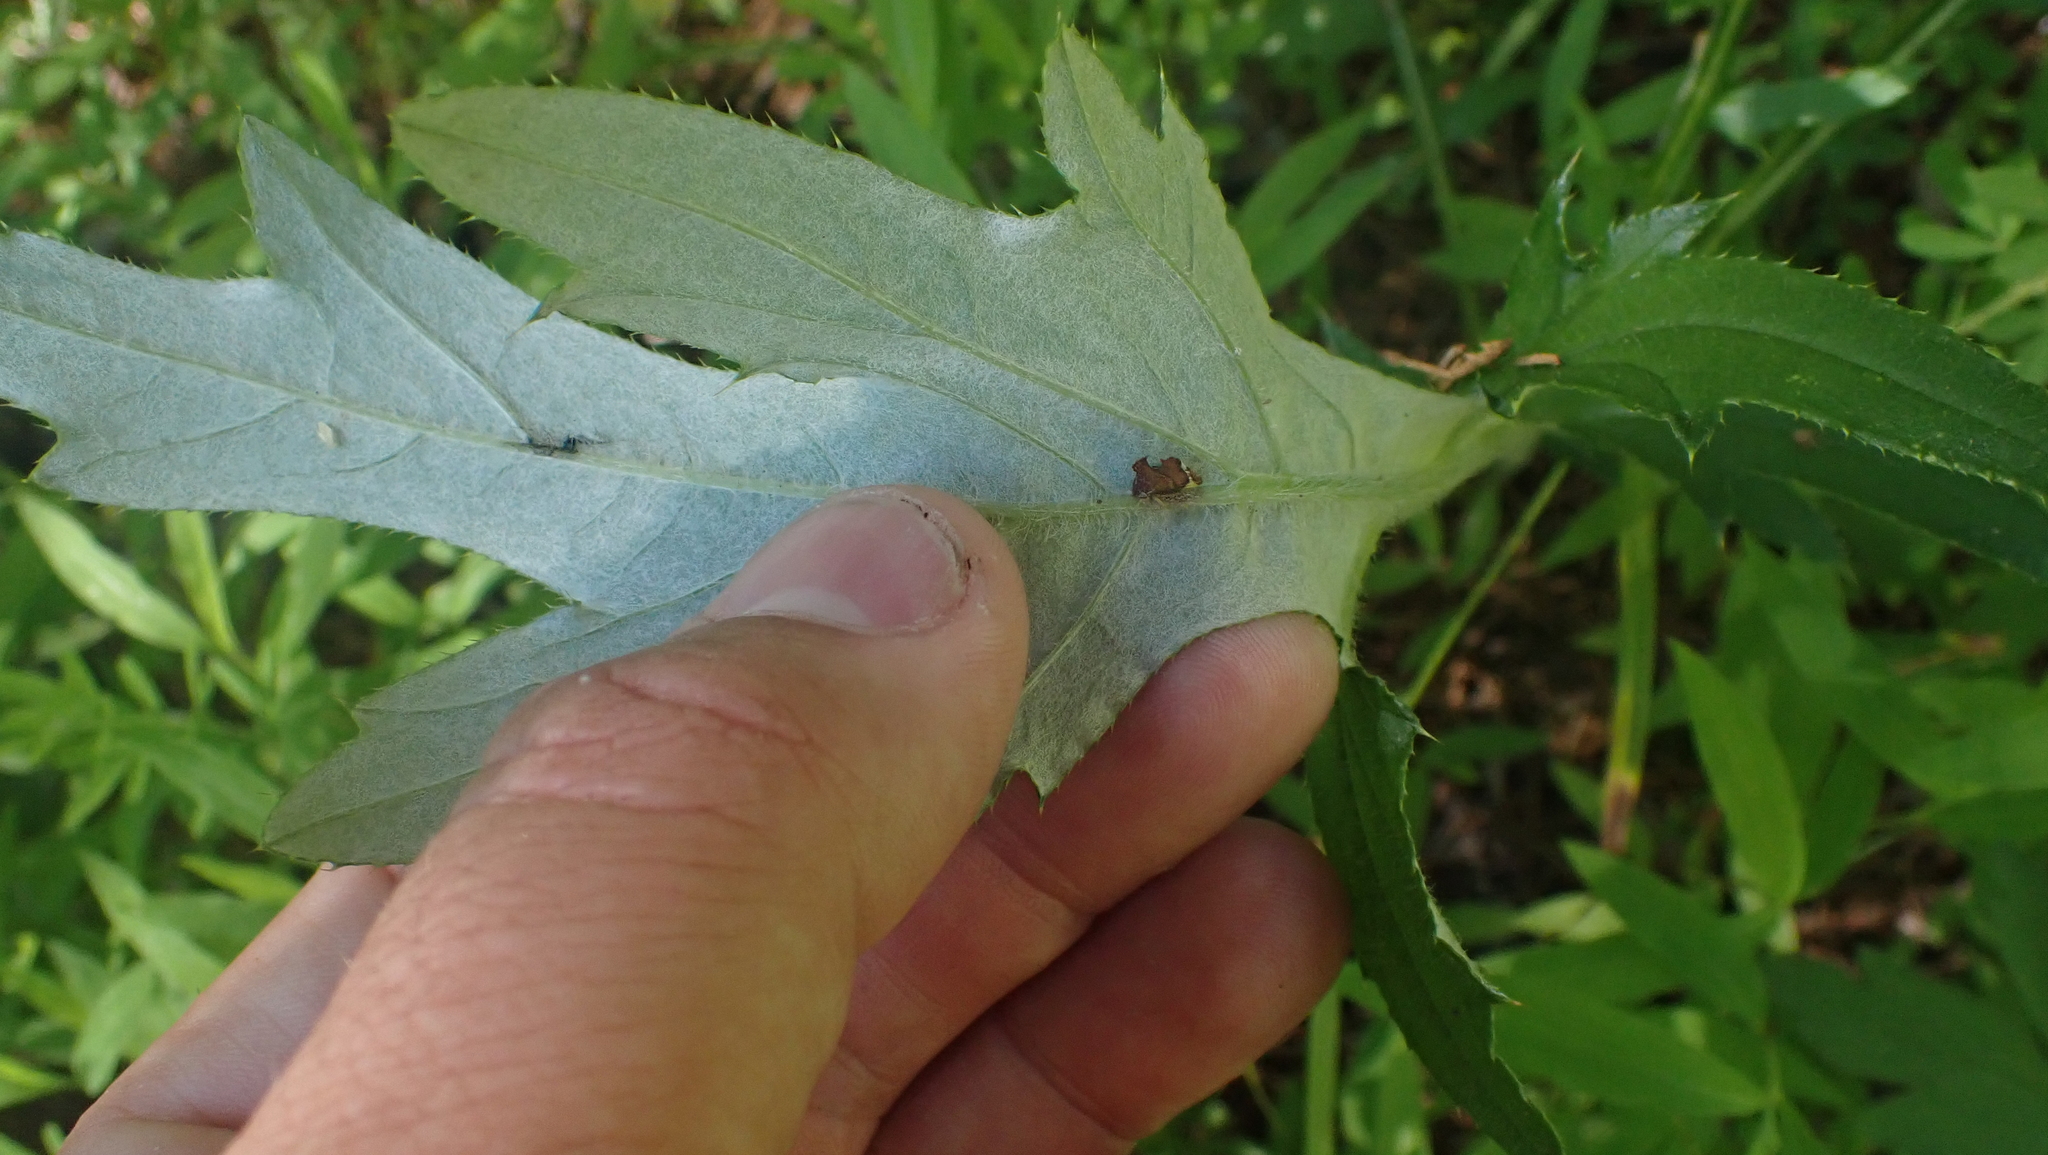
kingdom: Animalia
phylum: Arthropoda
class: Insecta
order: Hemiptera
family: Membracidae
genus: Entylia
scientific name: Entylia carinata
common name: Keeled treehopper
